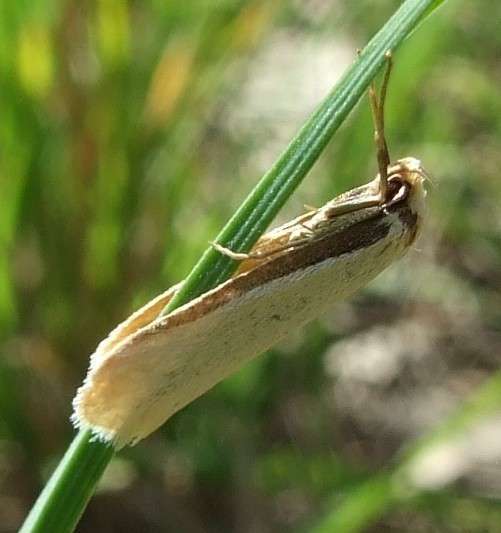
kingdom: Animalia
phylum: Arthropoda
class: Insecta
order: Lepidoptera
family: Oecophoridae
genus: Philobota
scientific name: Philobota xiphostola
